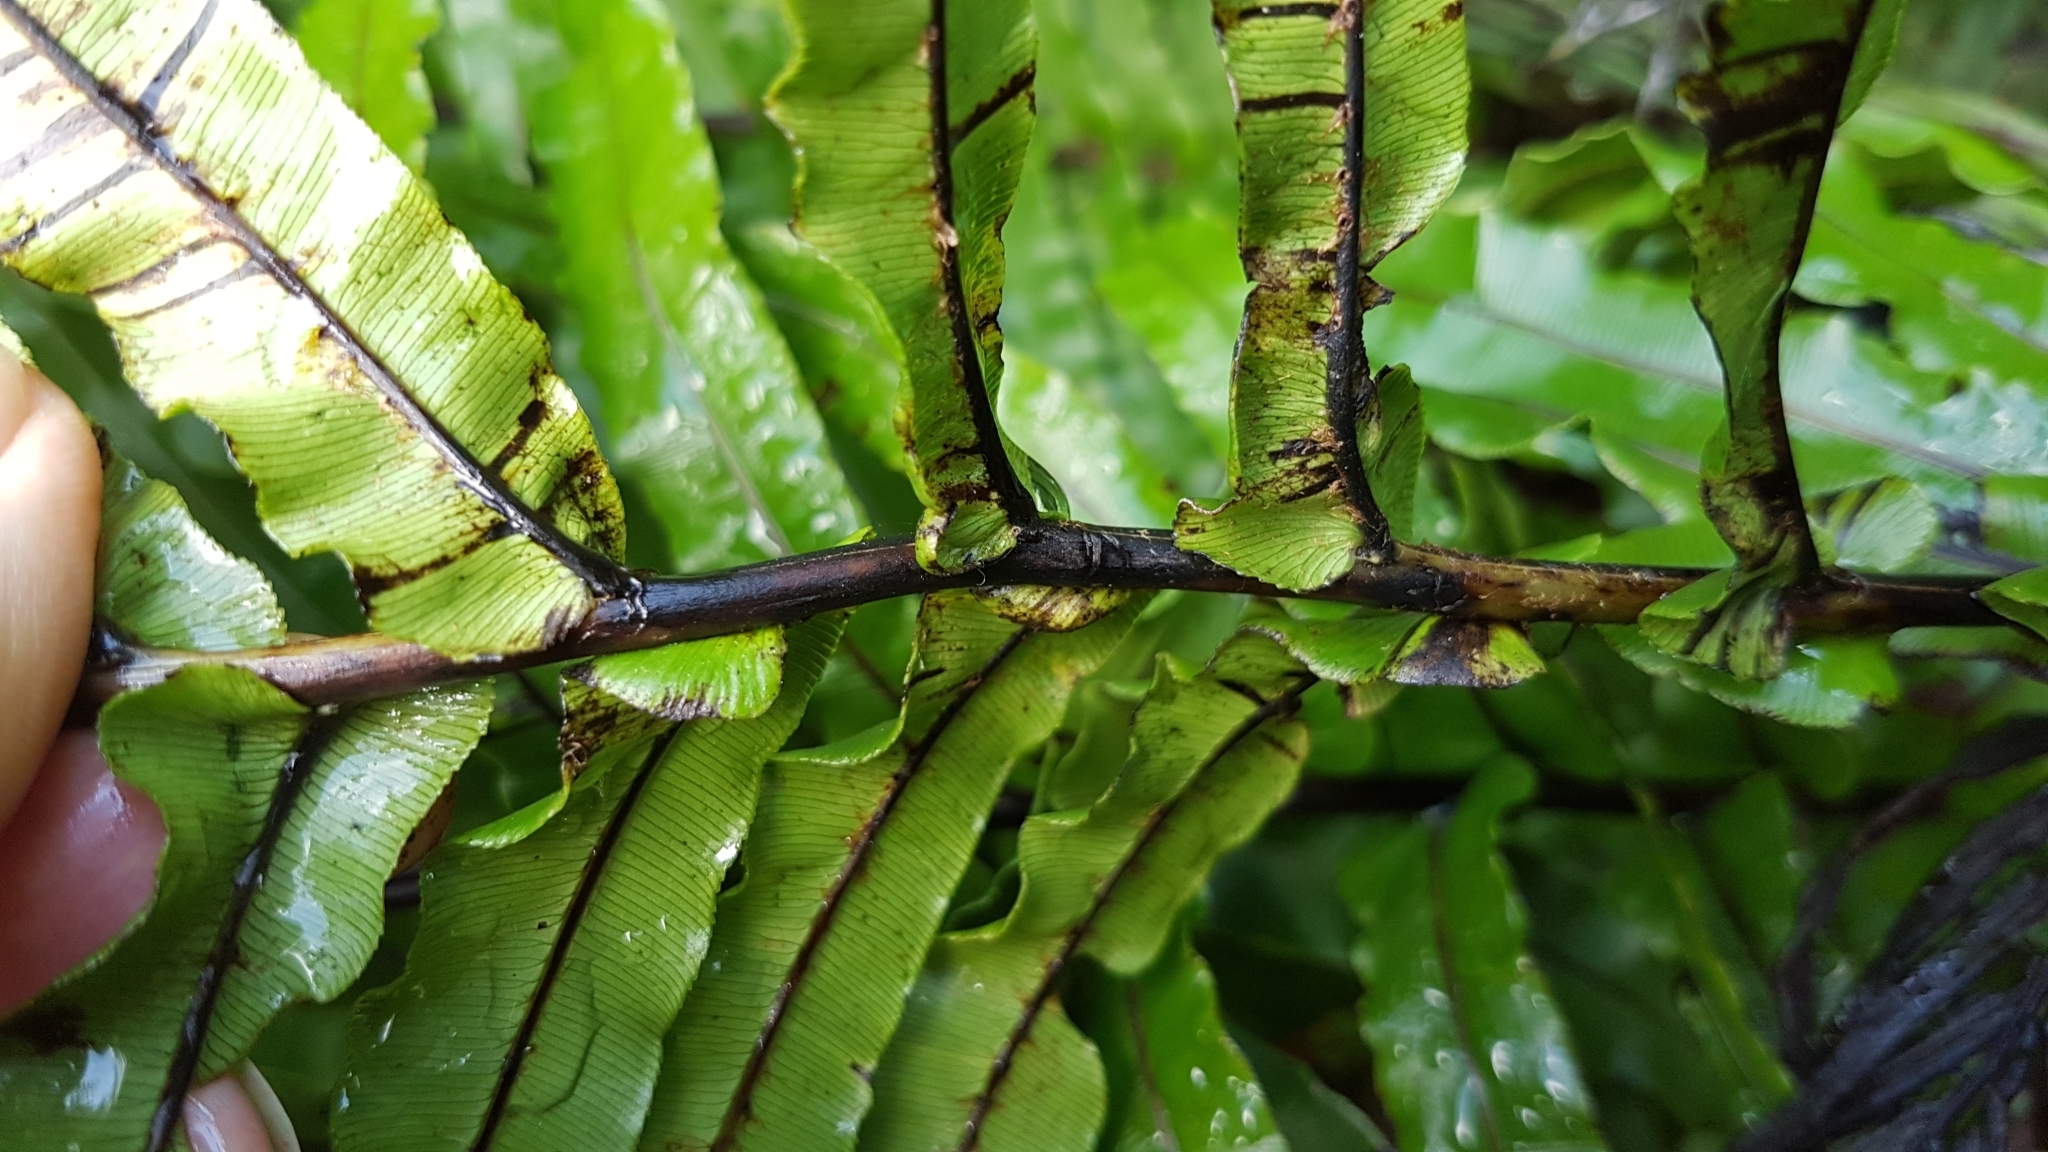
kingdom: Plantae
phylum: Tracheophyta
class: Polypodiopsida
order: Polypodiales
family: Blechnaceae
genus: Parablechnum
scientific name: Parablechnum novae-zelandiae
